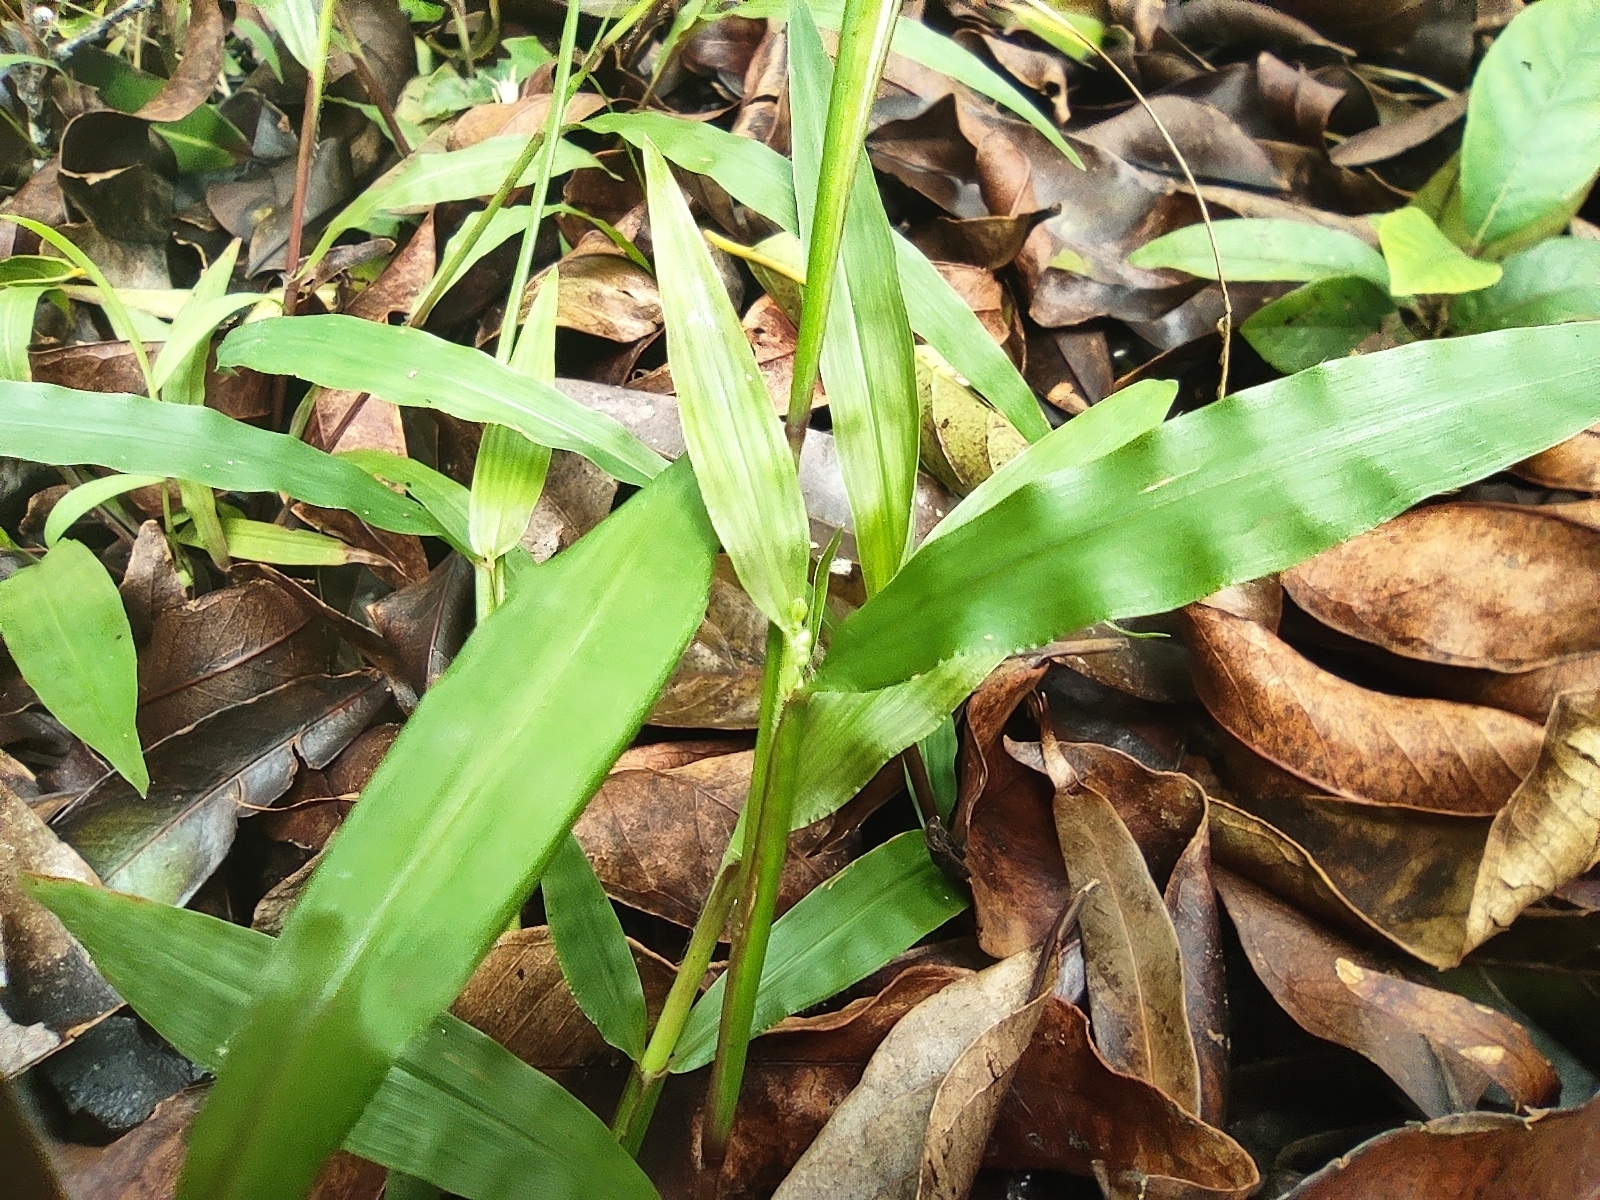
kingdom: Plantae
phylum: Tracheophyta
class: Liliopsida
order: Poales
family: Poaceae
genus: Paspalum
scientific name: Paspalum nutans
